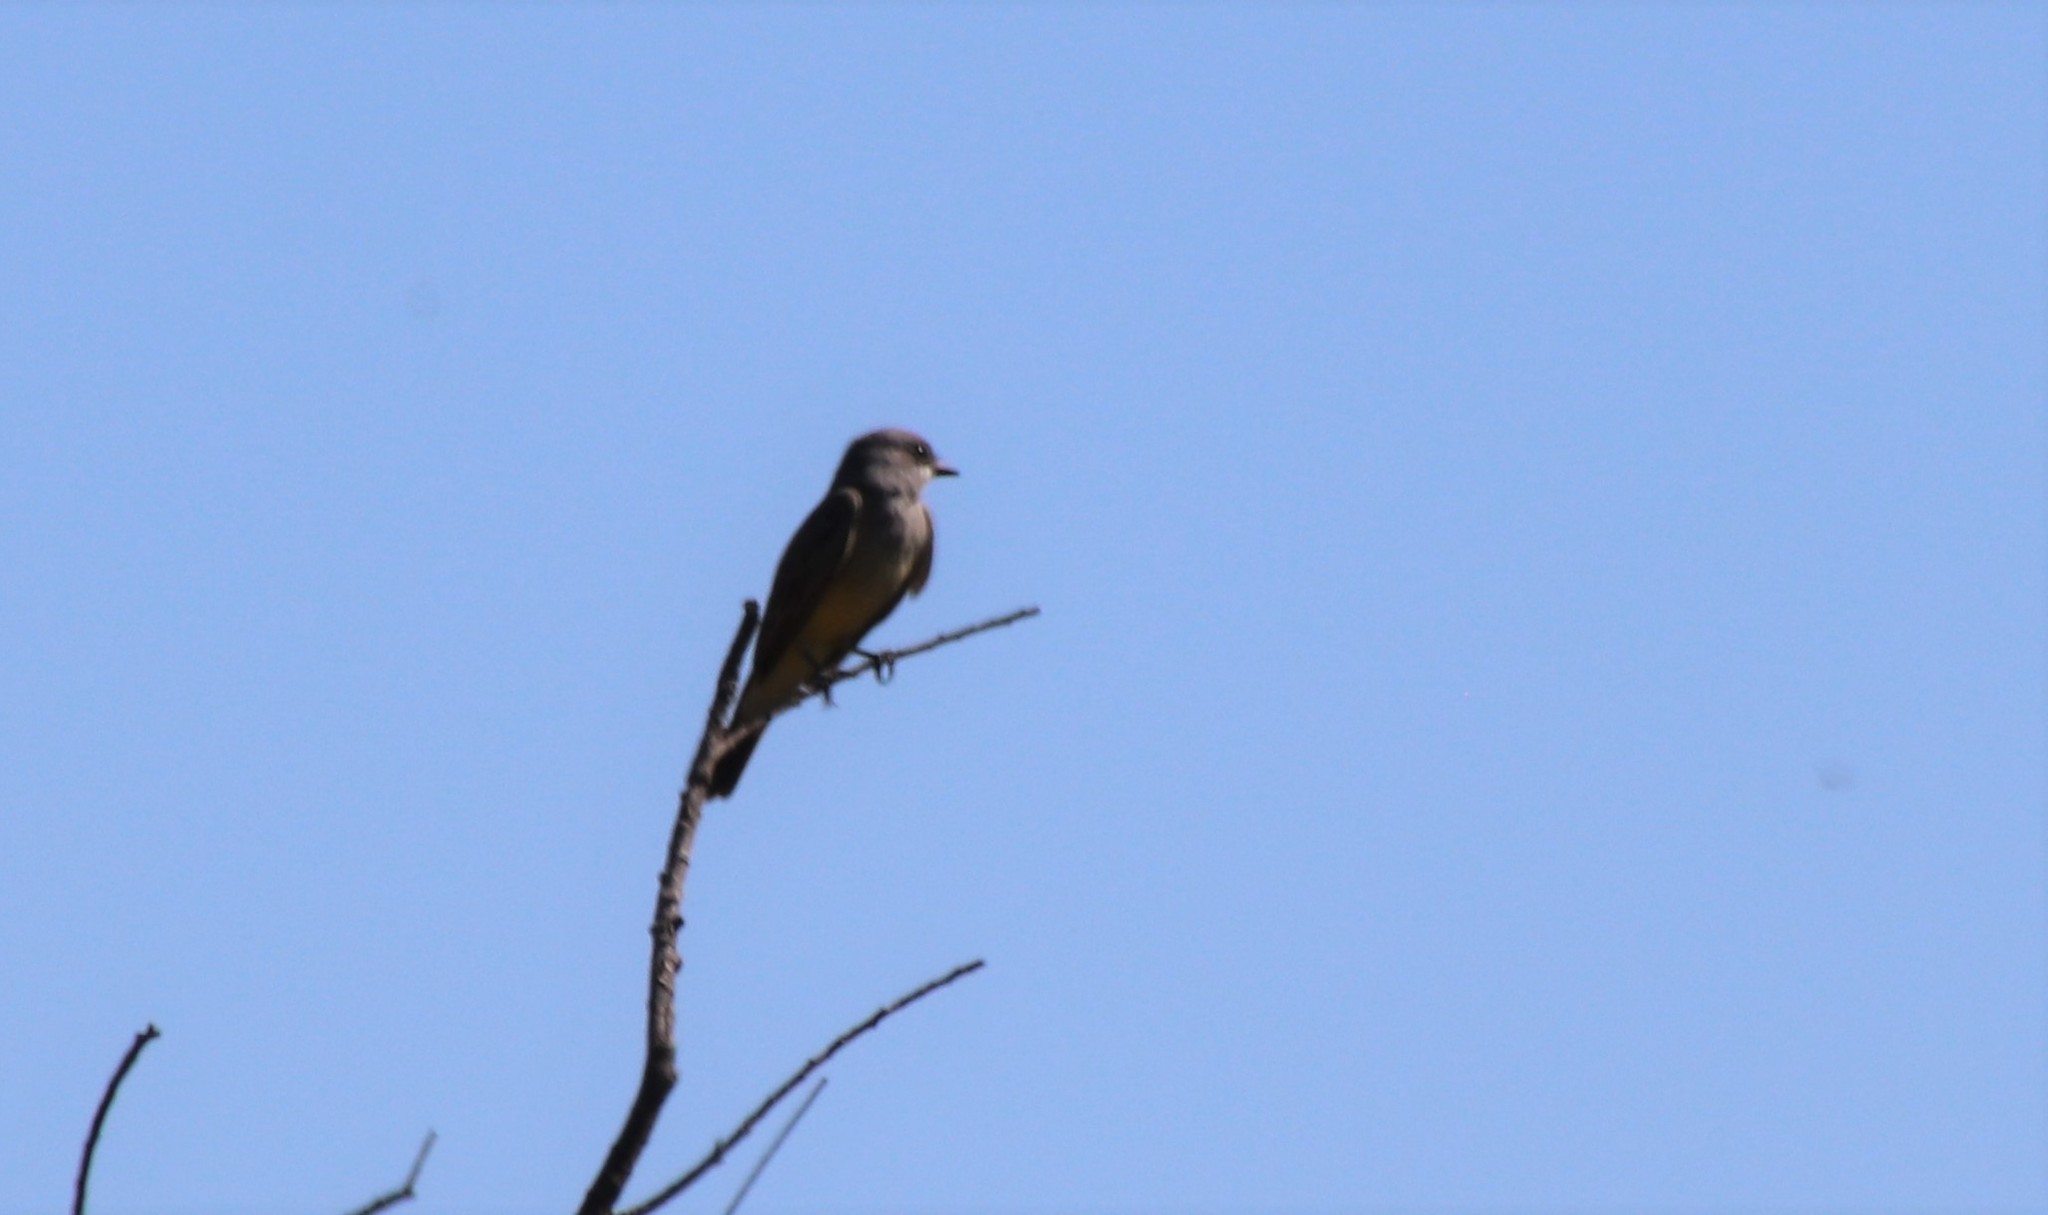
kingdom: Animalia
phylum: Chordata
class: Aves
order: Passeriformes
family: Tyrannidae
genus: Tyrannus
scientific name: Tyrannus vociferans
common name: Cassin's kingbird
